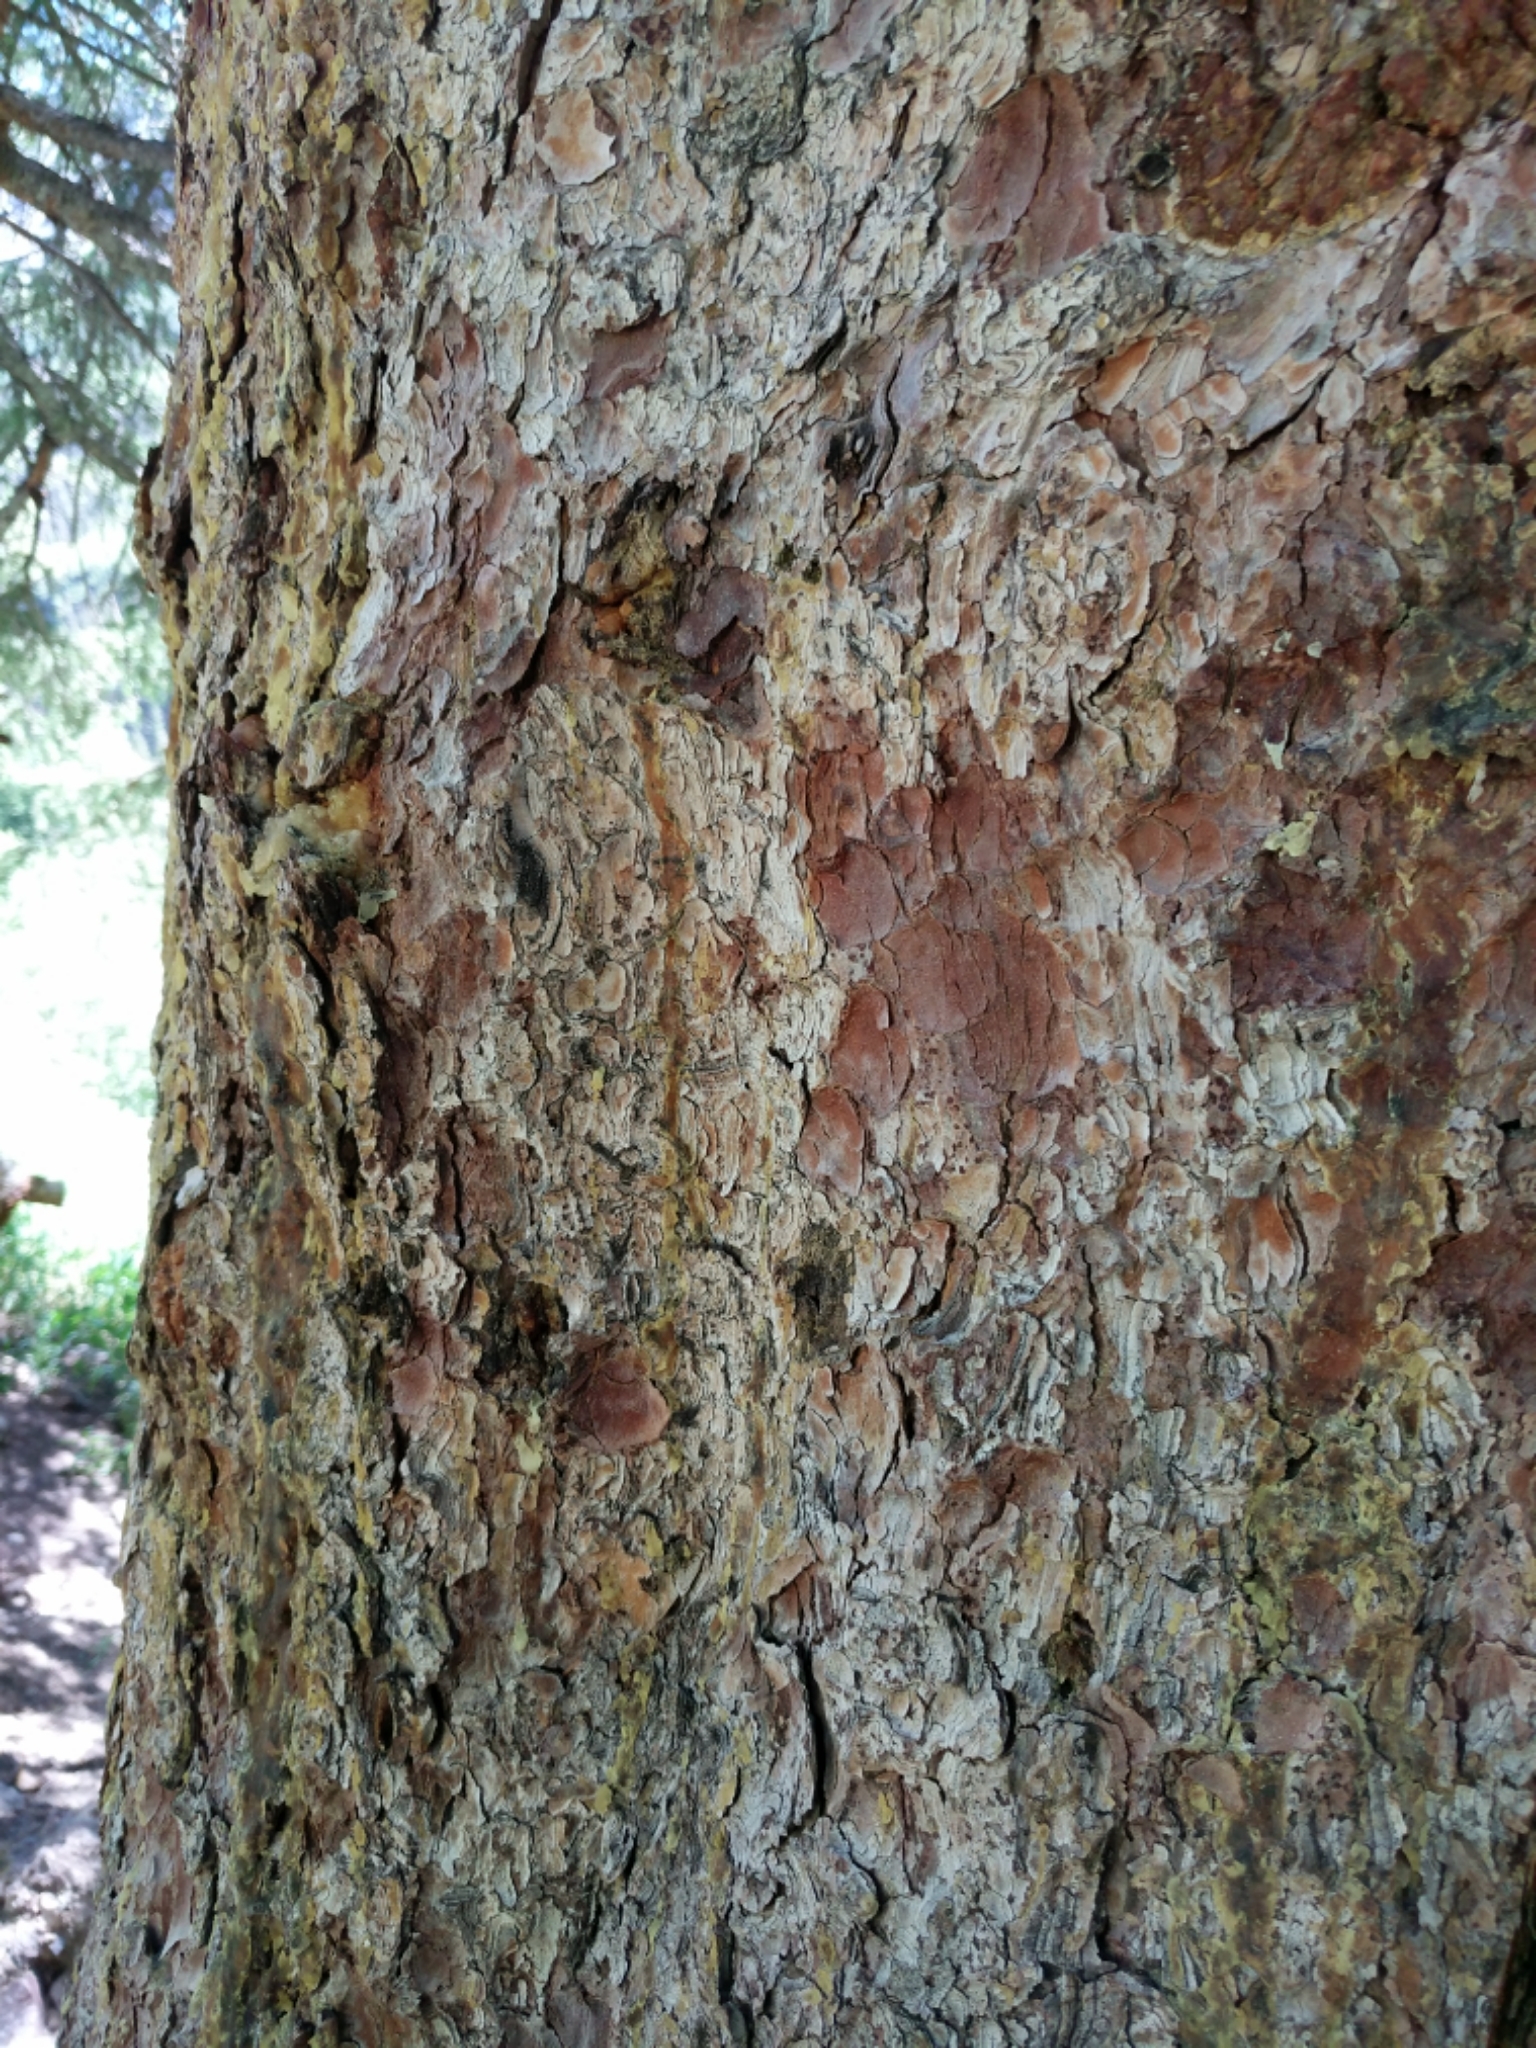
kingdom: Plantae
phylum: Tracheophyta
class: Pinopsida
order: Pinales
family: Pinaceae
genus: Picea
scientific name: Picea engelmannii
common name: Engelmann spruce
